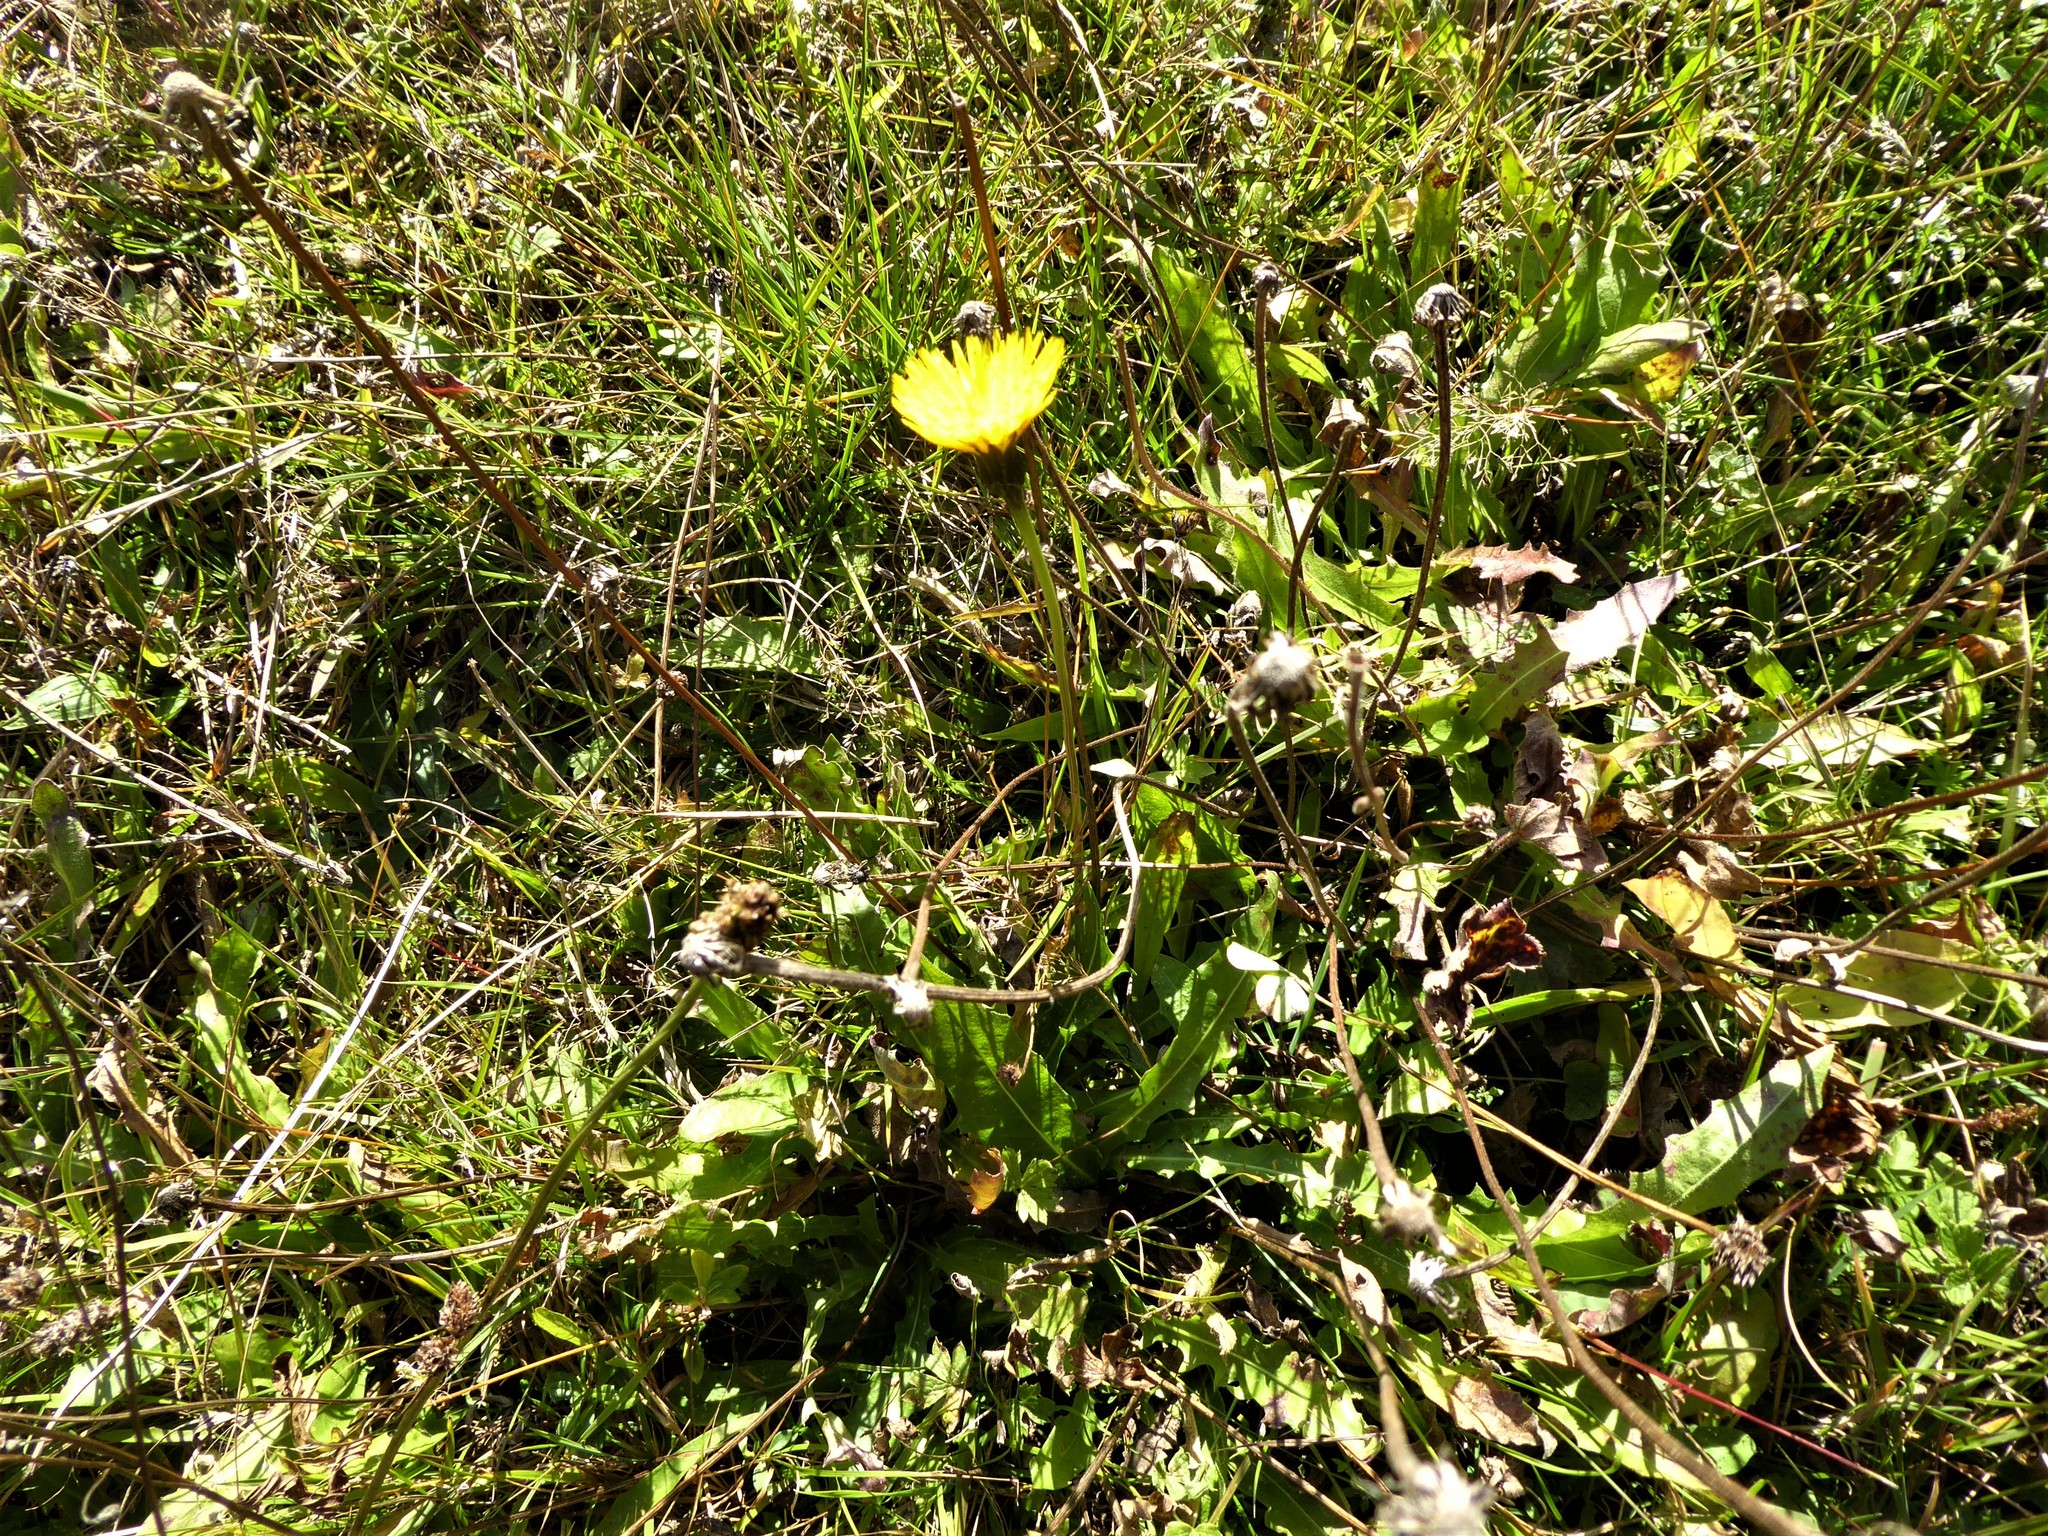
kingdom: Plantae
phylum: Tracheophyta
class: Magnoliopsida
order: Asterales
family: Asteraceae
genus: Leontodon
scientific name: Leontodon hispidus
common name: Rough hawkbit
